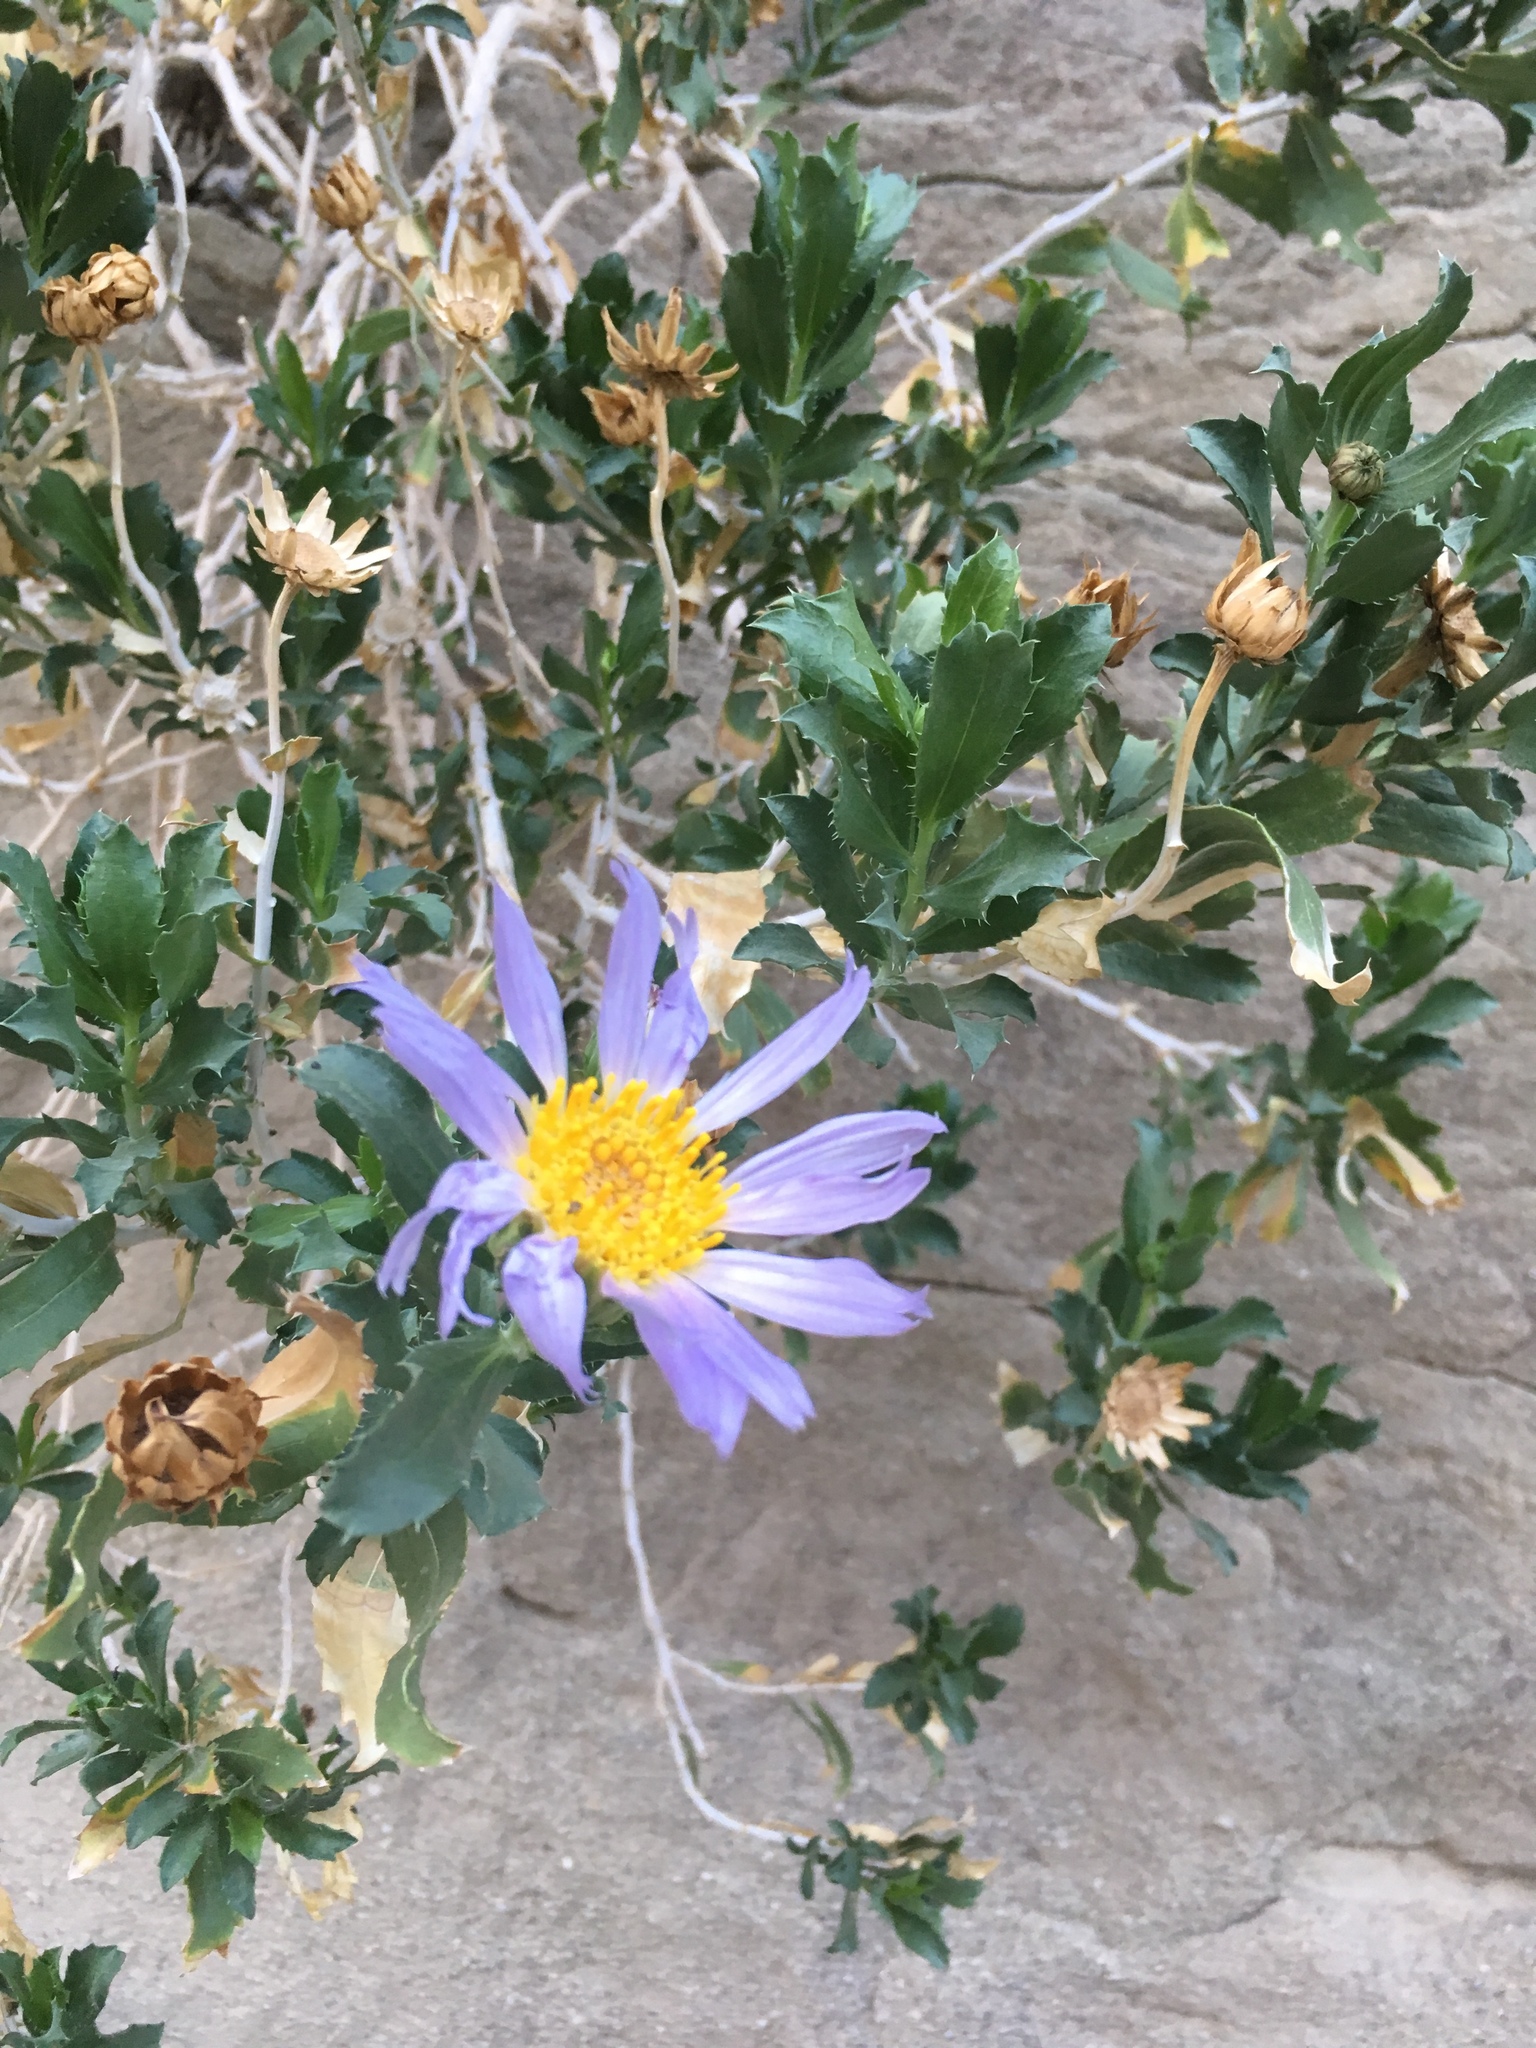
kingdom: Plantae
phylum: Tracheophyta
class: Magnoliopsida
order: Asterales
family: Asteraceae
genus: Xylorhiza
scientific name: Xylorhiza orcuttii
